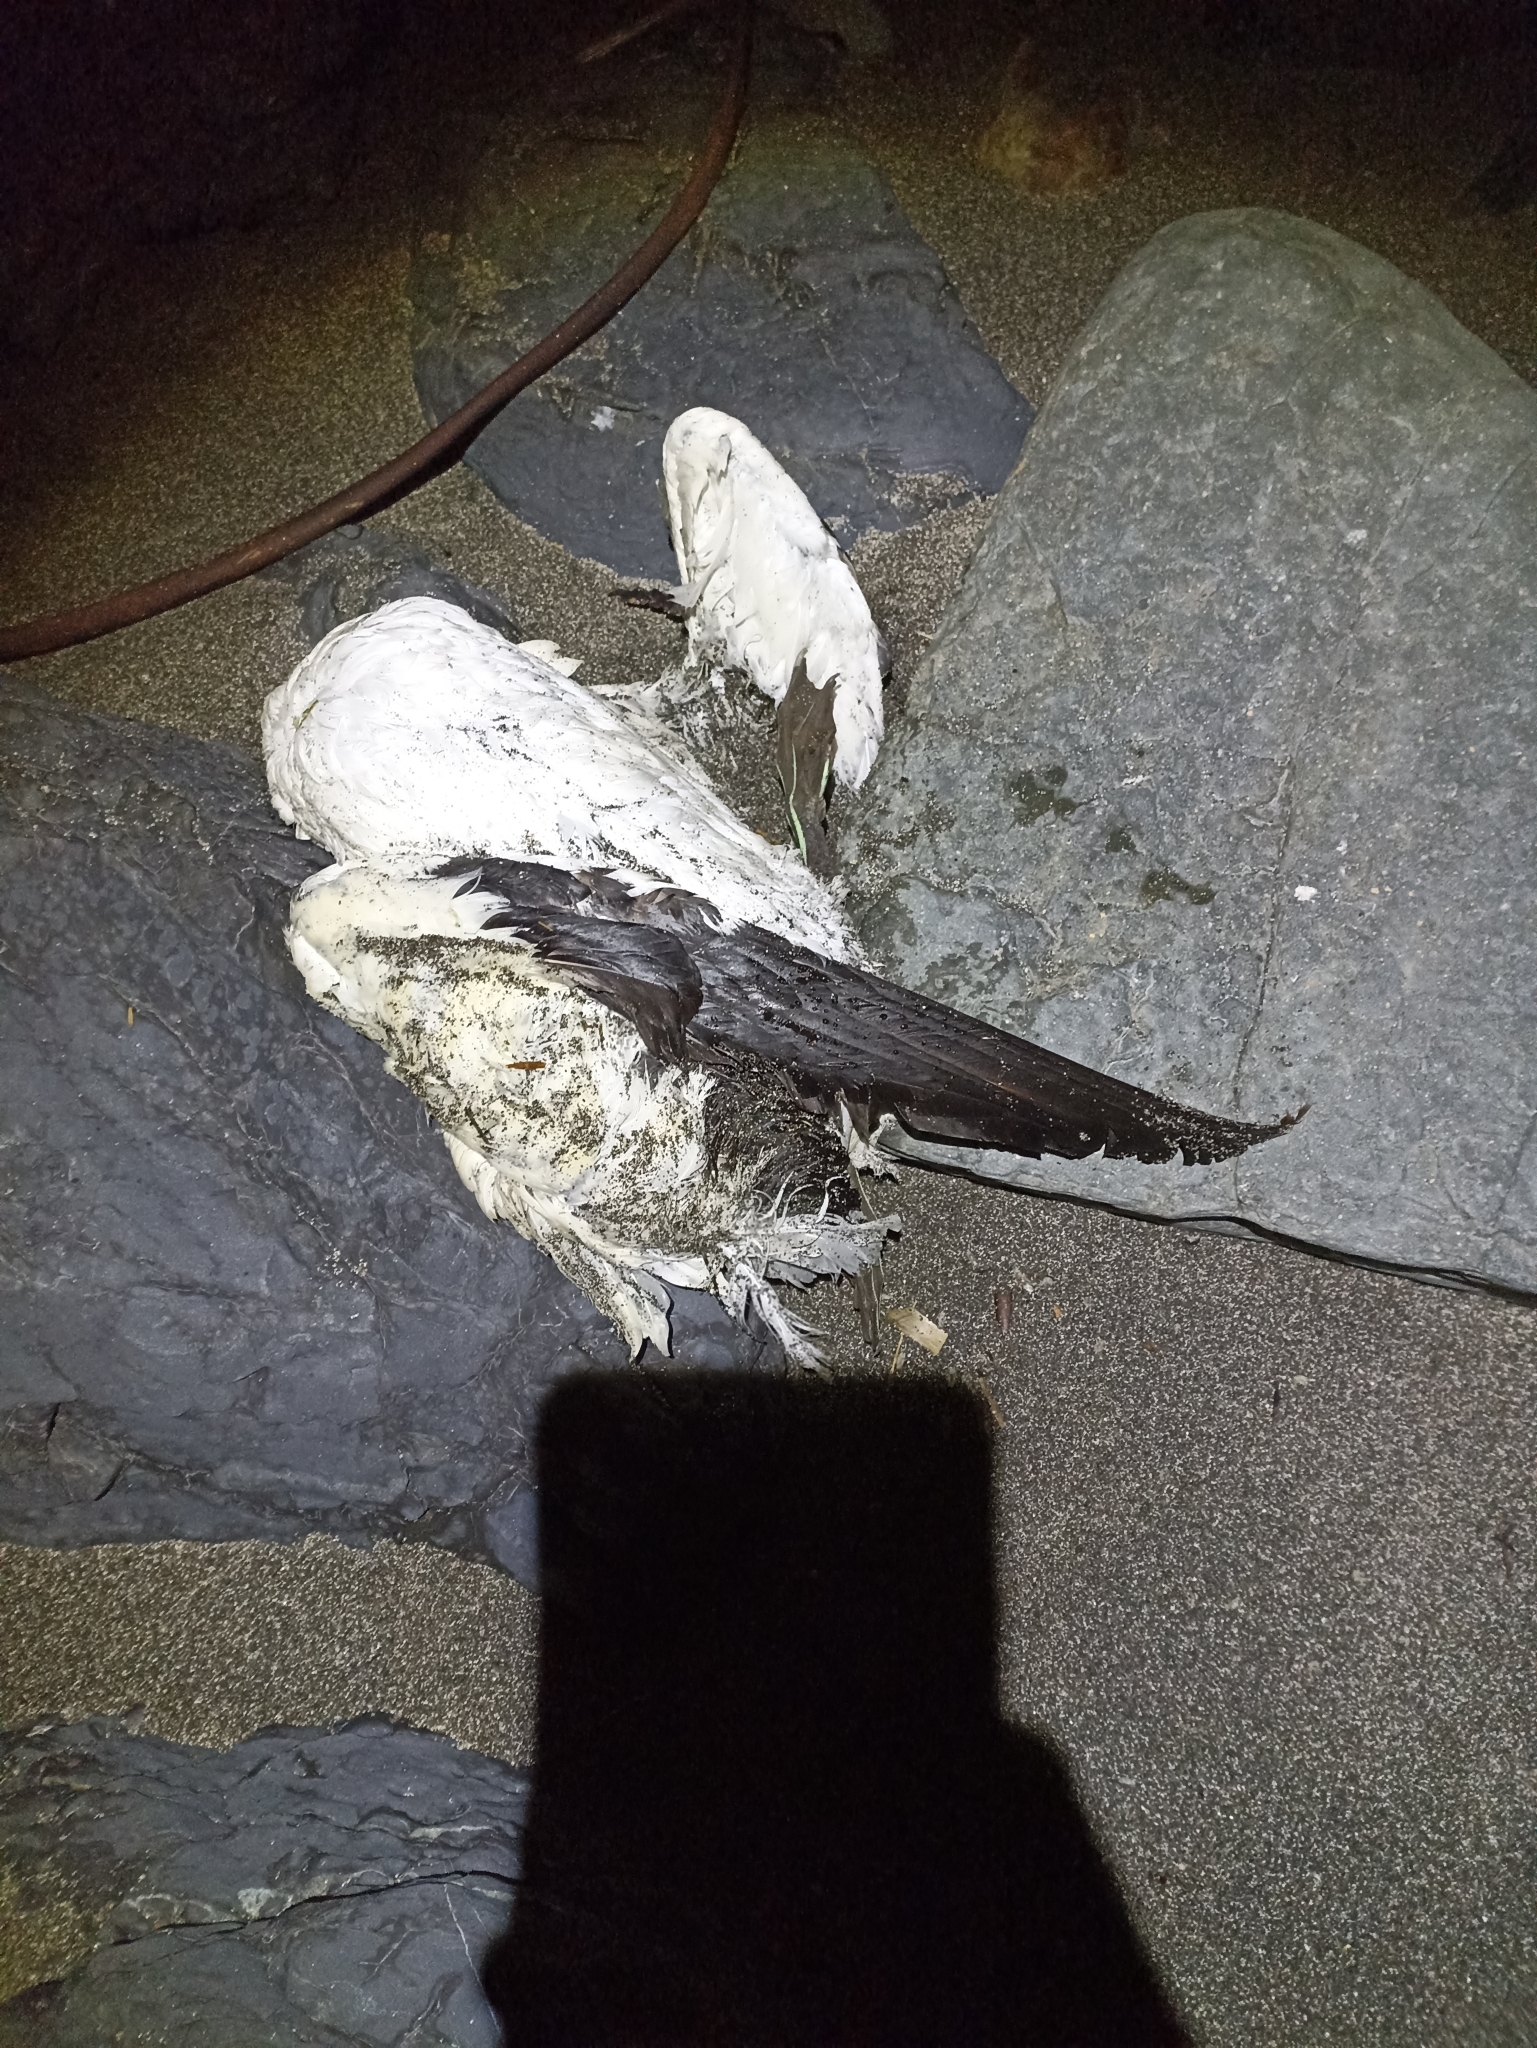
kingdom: Animalia
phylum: Chordata
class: Aves
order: Suliformes
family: Sulidae
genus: Morus
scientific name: Morus serrator
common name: Australasian gannet
